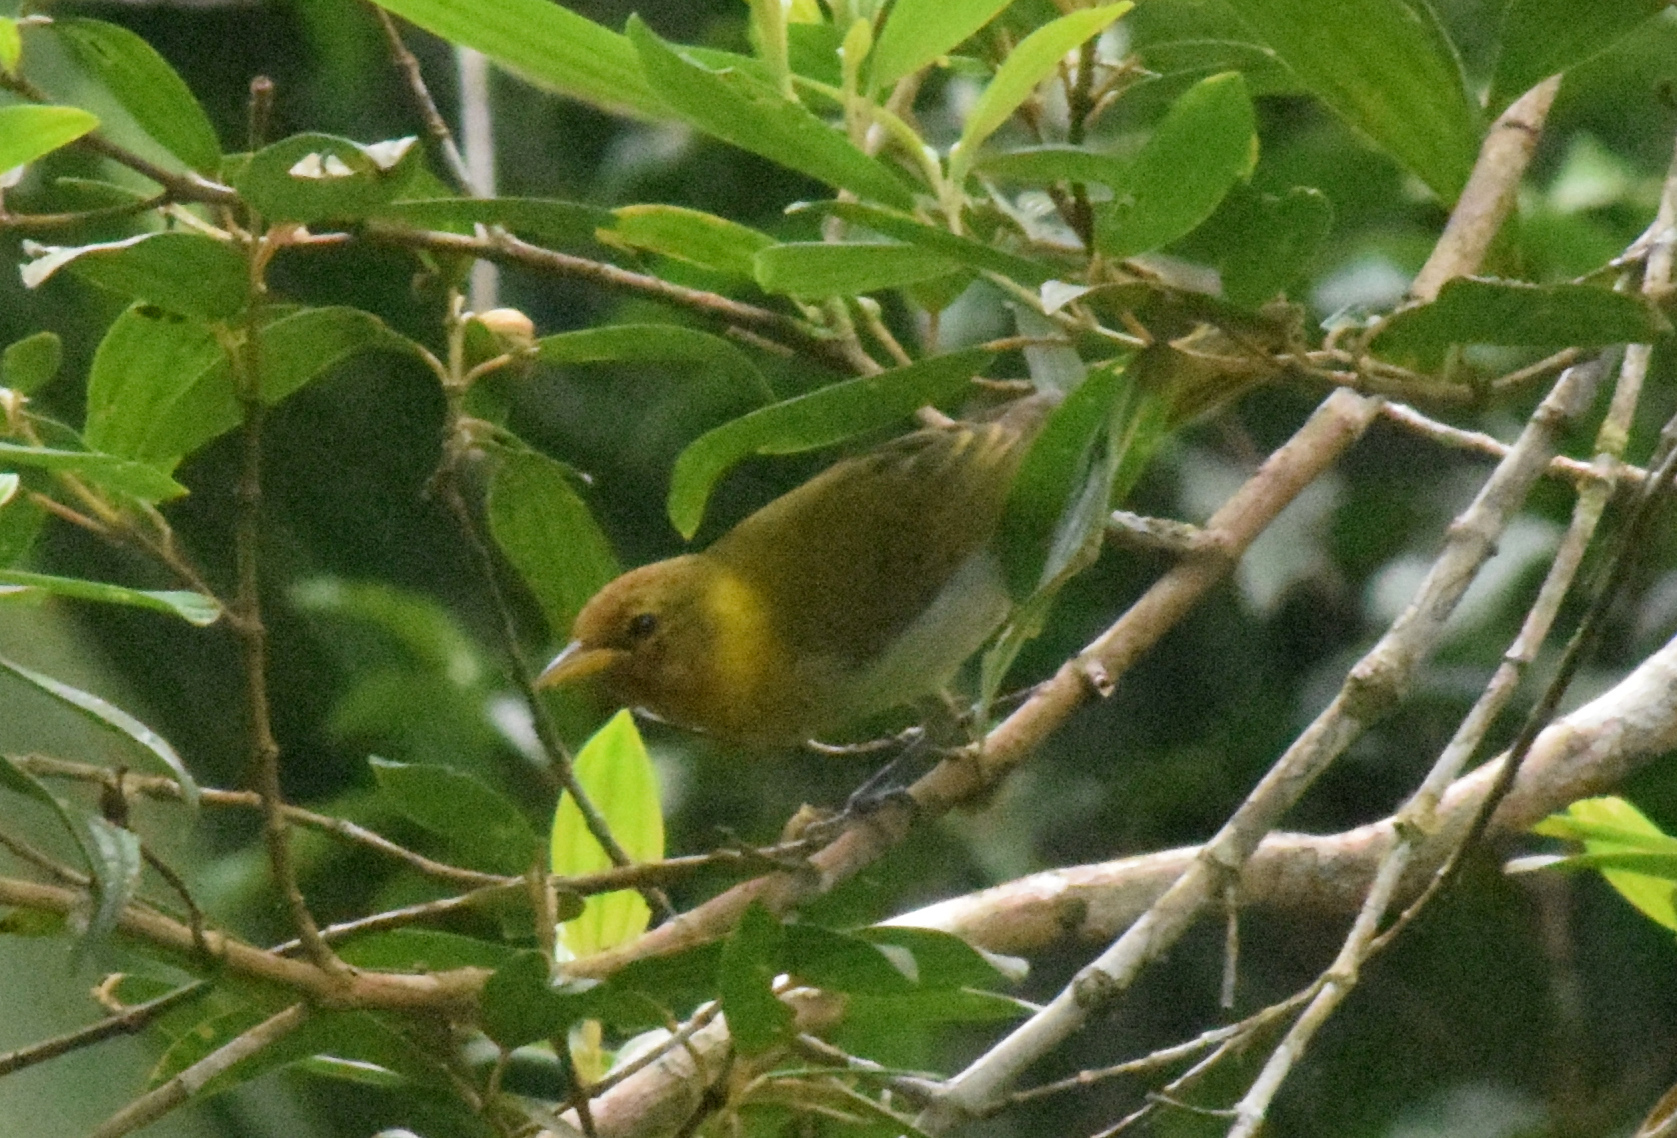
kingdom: Animalia
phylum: Chordata
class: Aves
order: Passeriformes
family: Thraupidae
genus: Hemithraupis
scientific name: Hemithraupis ruficapilla
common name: Rufous-headed tanager
